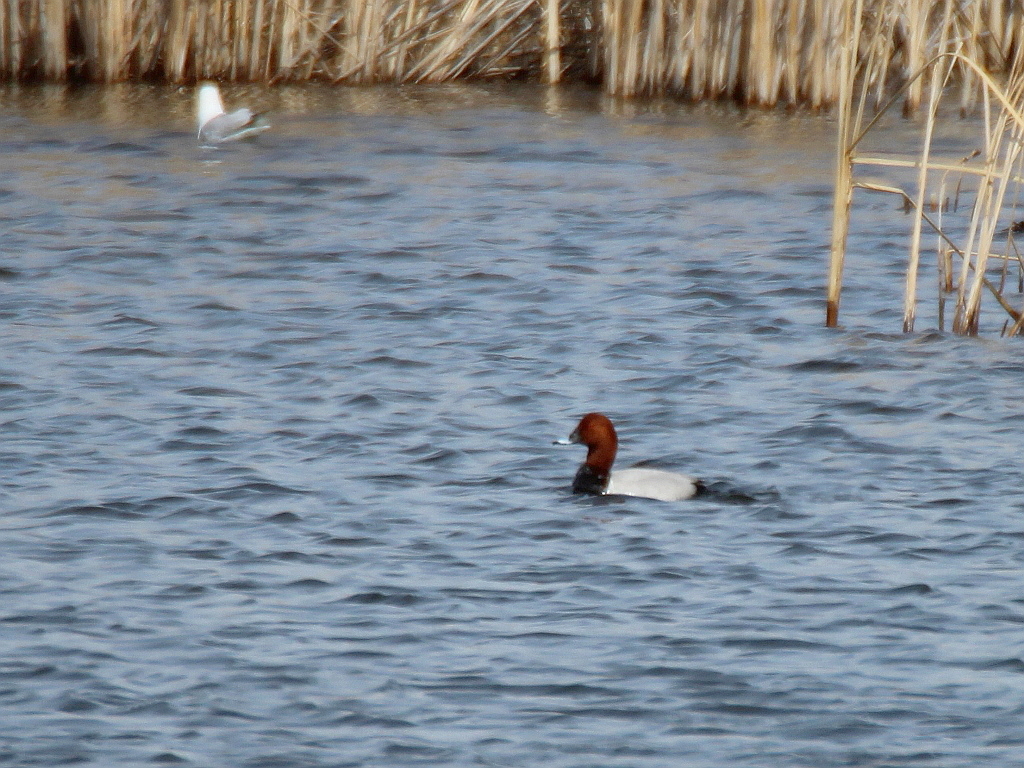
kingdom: Animalia
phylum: Chordata
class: Aves
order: Anseriformes
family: Anatidae
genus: Aythya
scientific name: Aythya ferina
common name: Common pochard
